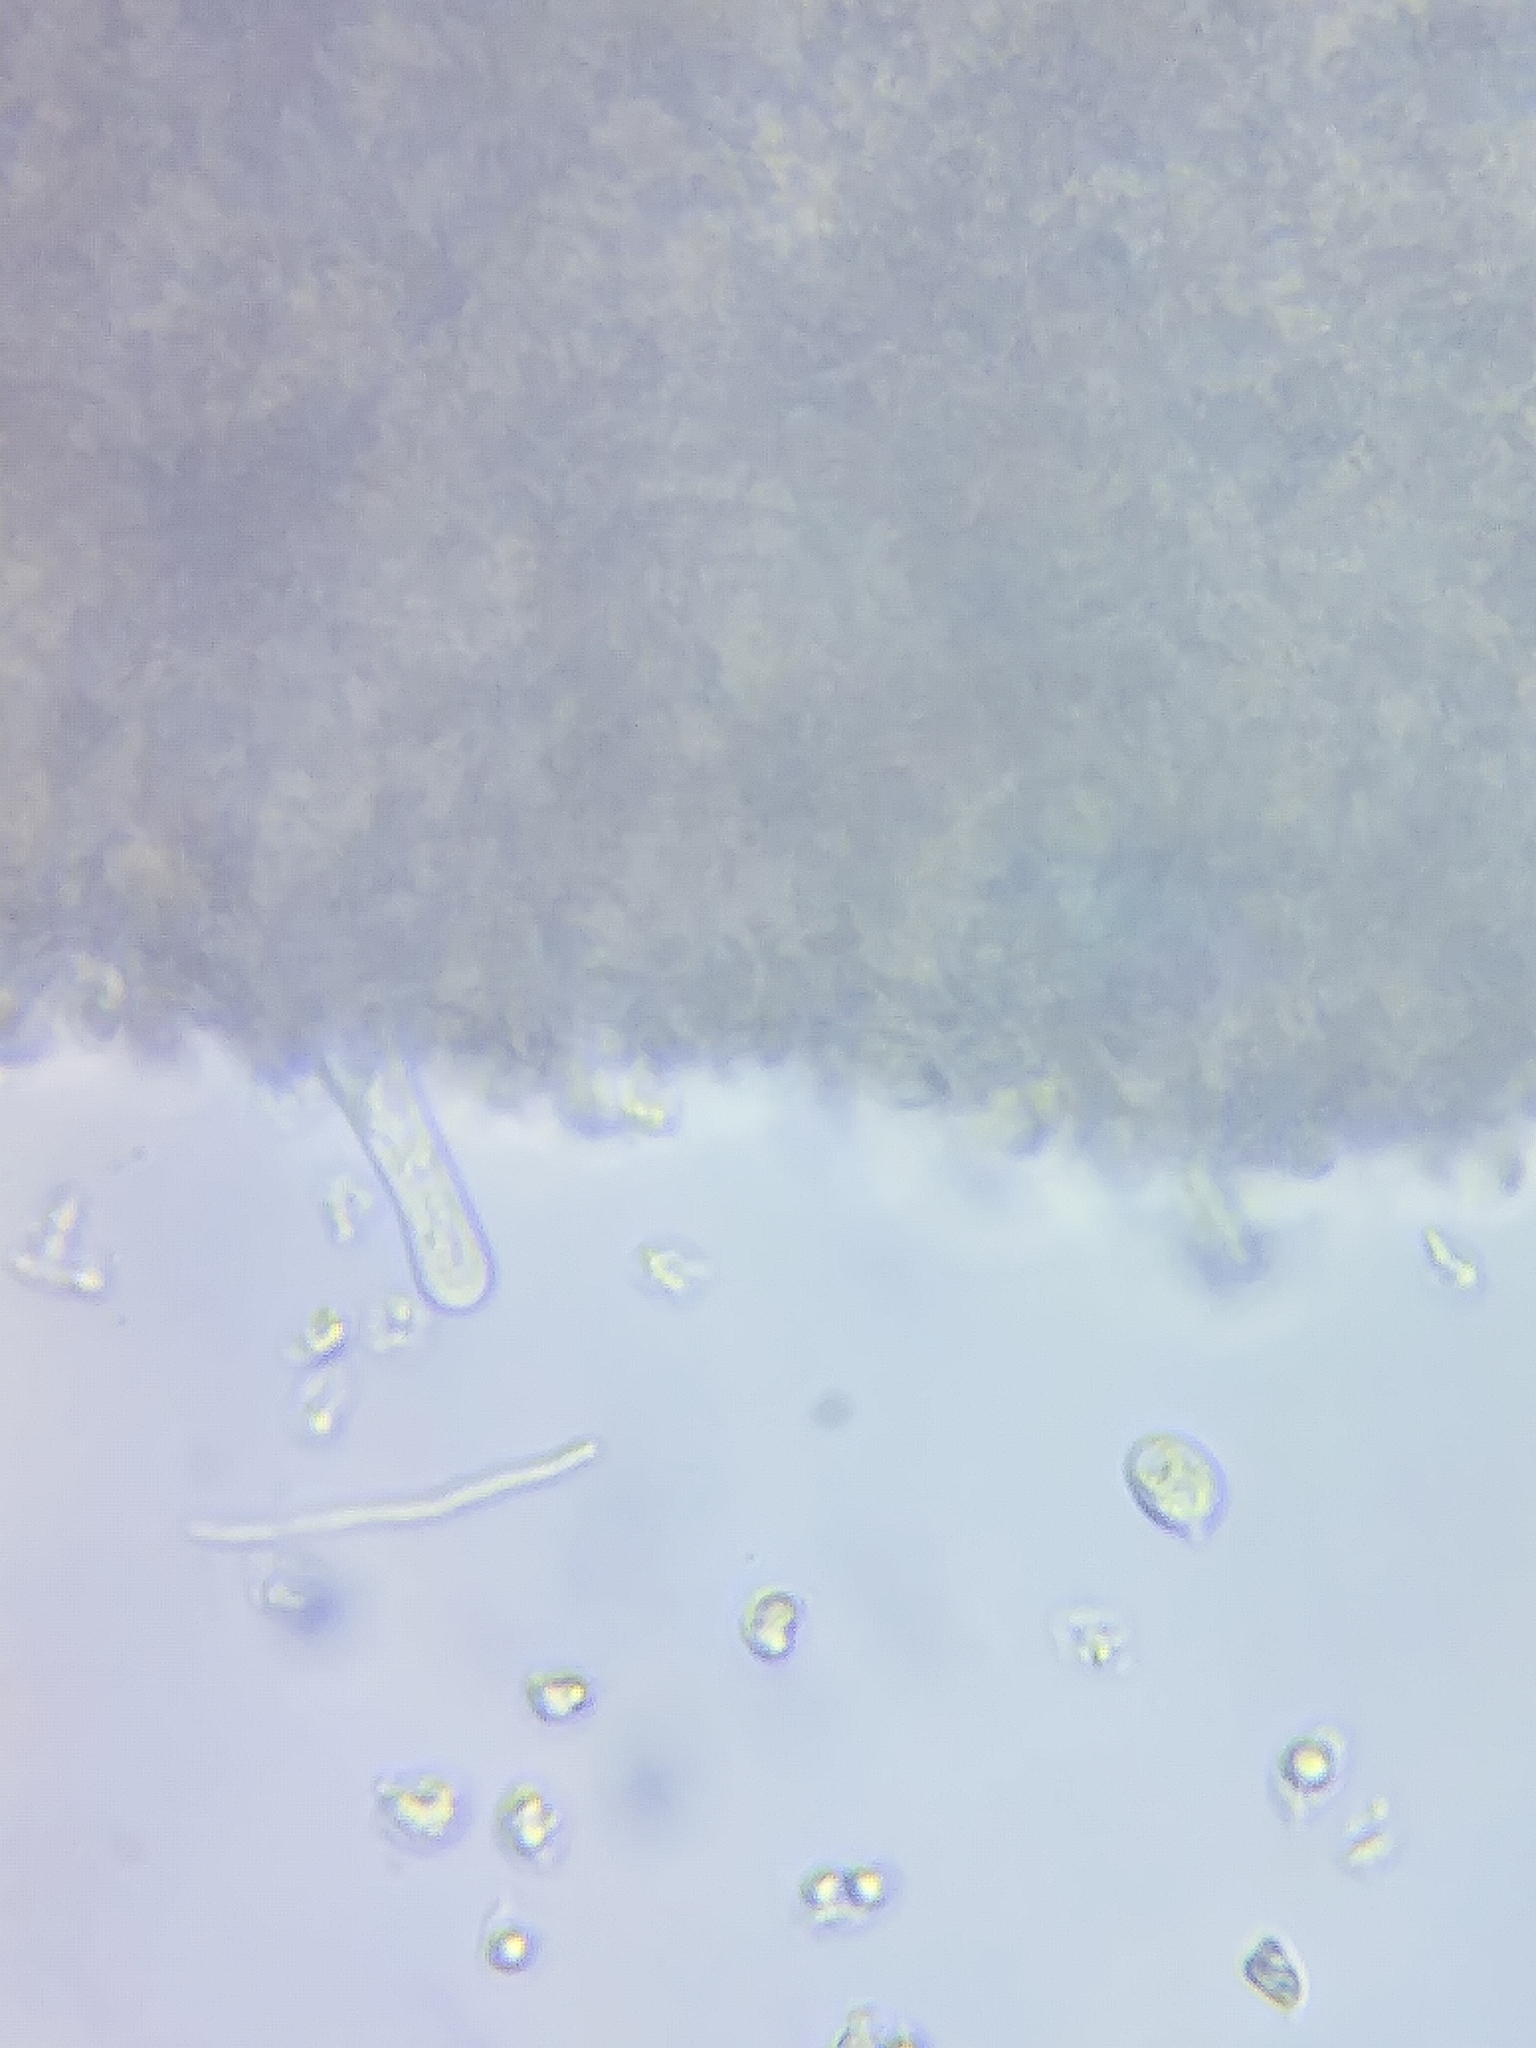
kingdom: Fungi
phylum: Basidiomycota
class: Agaricomycetes
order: Agaricales
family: Mycenaceae
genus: Mycena
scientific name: Mycena inclinata
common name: Clustered bonnet
